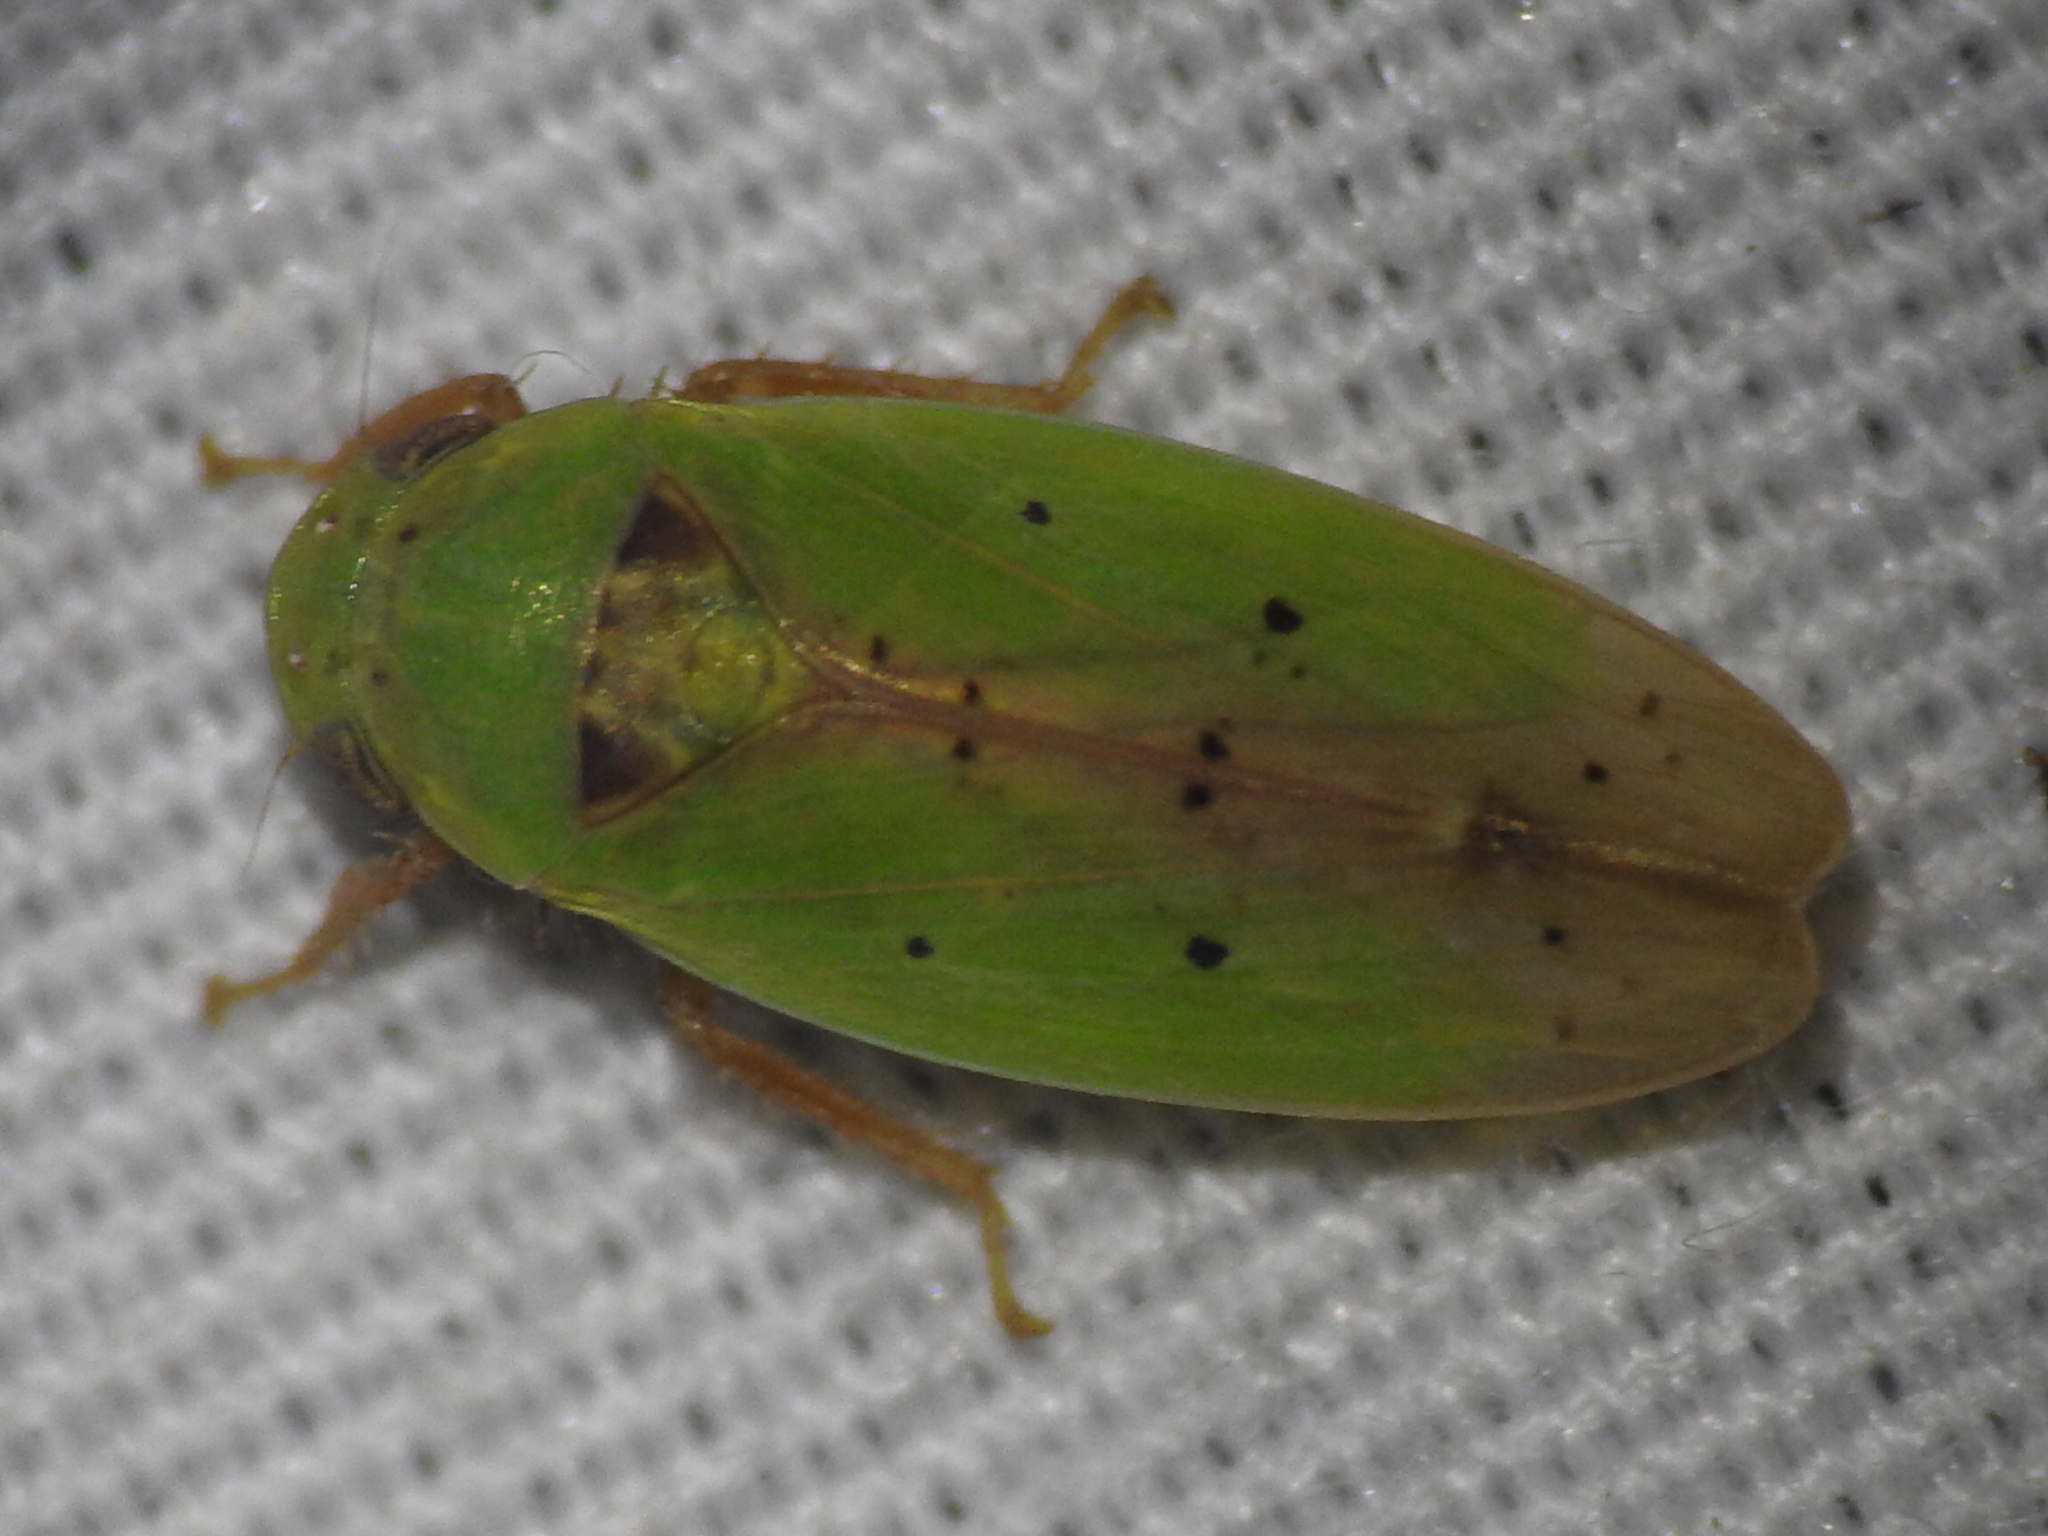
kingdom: Animalia
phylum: Arthropoda
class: Insecta
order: Hemiptera
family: Cicadellidae
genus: Ponana
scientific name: Ponana
